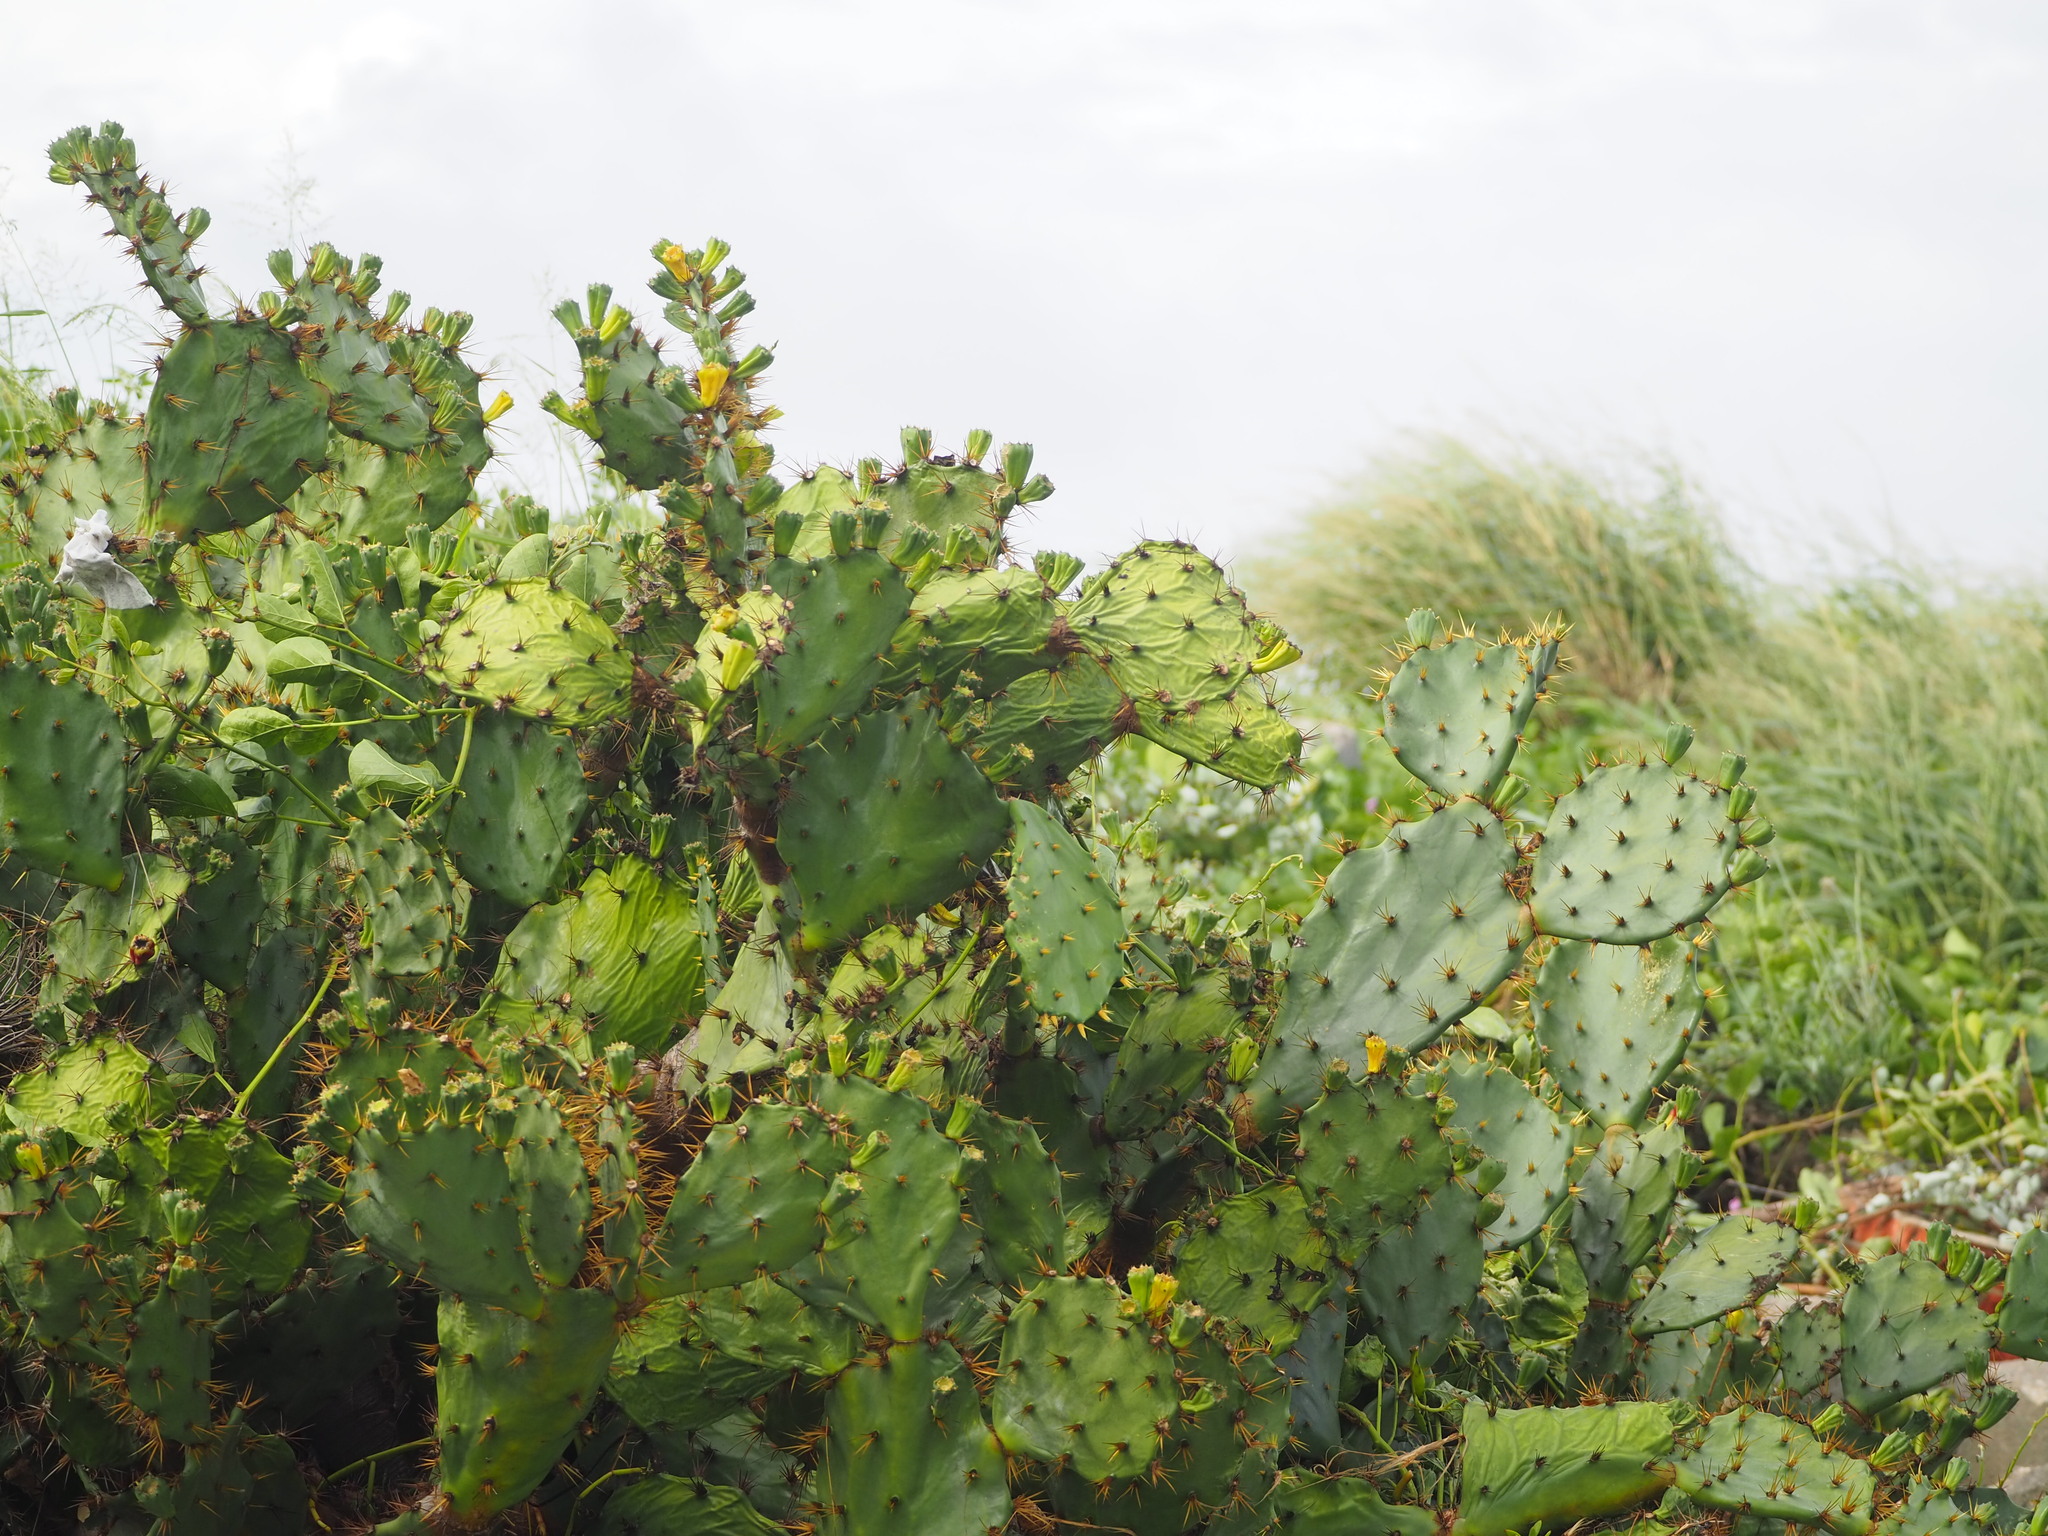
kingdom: Plantae
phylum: Tracheophyta
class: Magnoliopsida
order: Caryophyllales
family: Cactaceae
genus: Opuntia
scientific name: Opuntia dillenii
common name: Sour prickle
